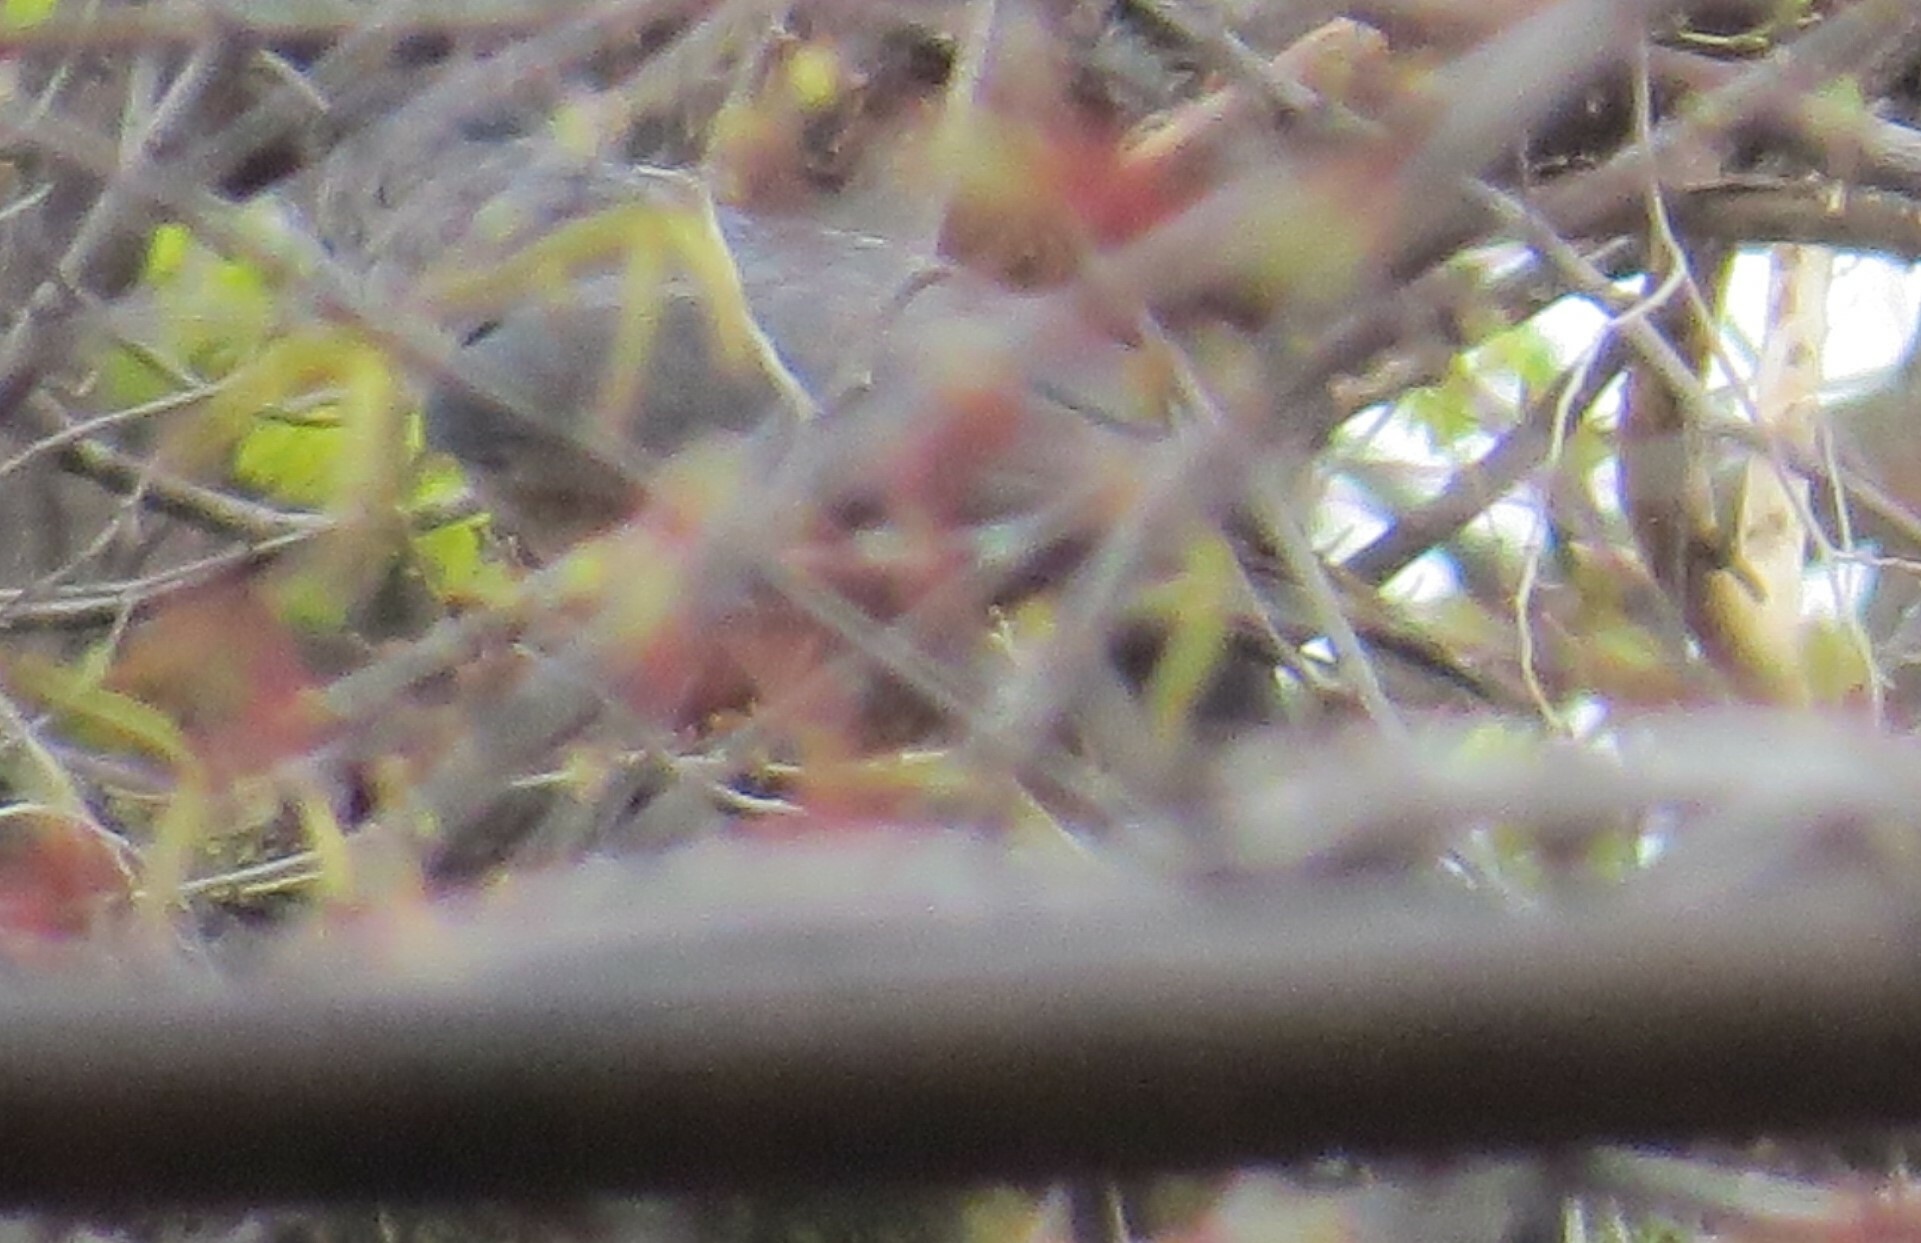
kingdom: Animalia
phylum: Chordata
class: Aves
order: Accipitriformes
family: Accipitridae
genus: Accipiter
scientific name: Accipiter cooperii
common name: Cooper's hawk
